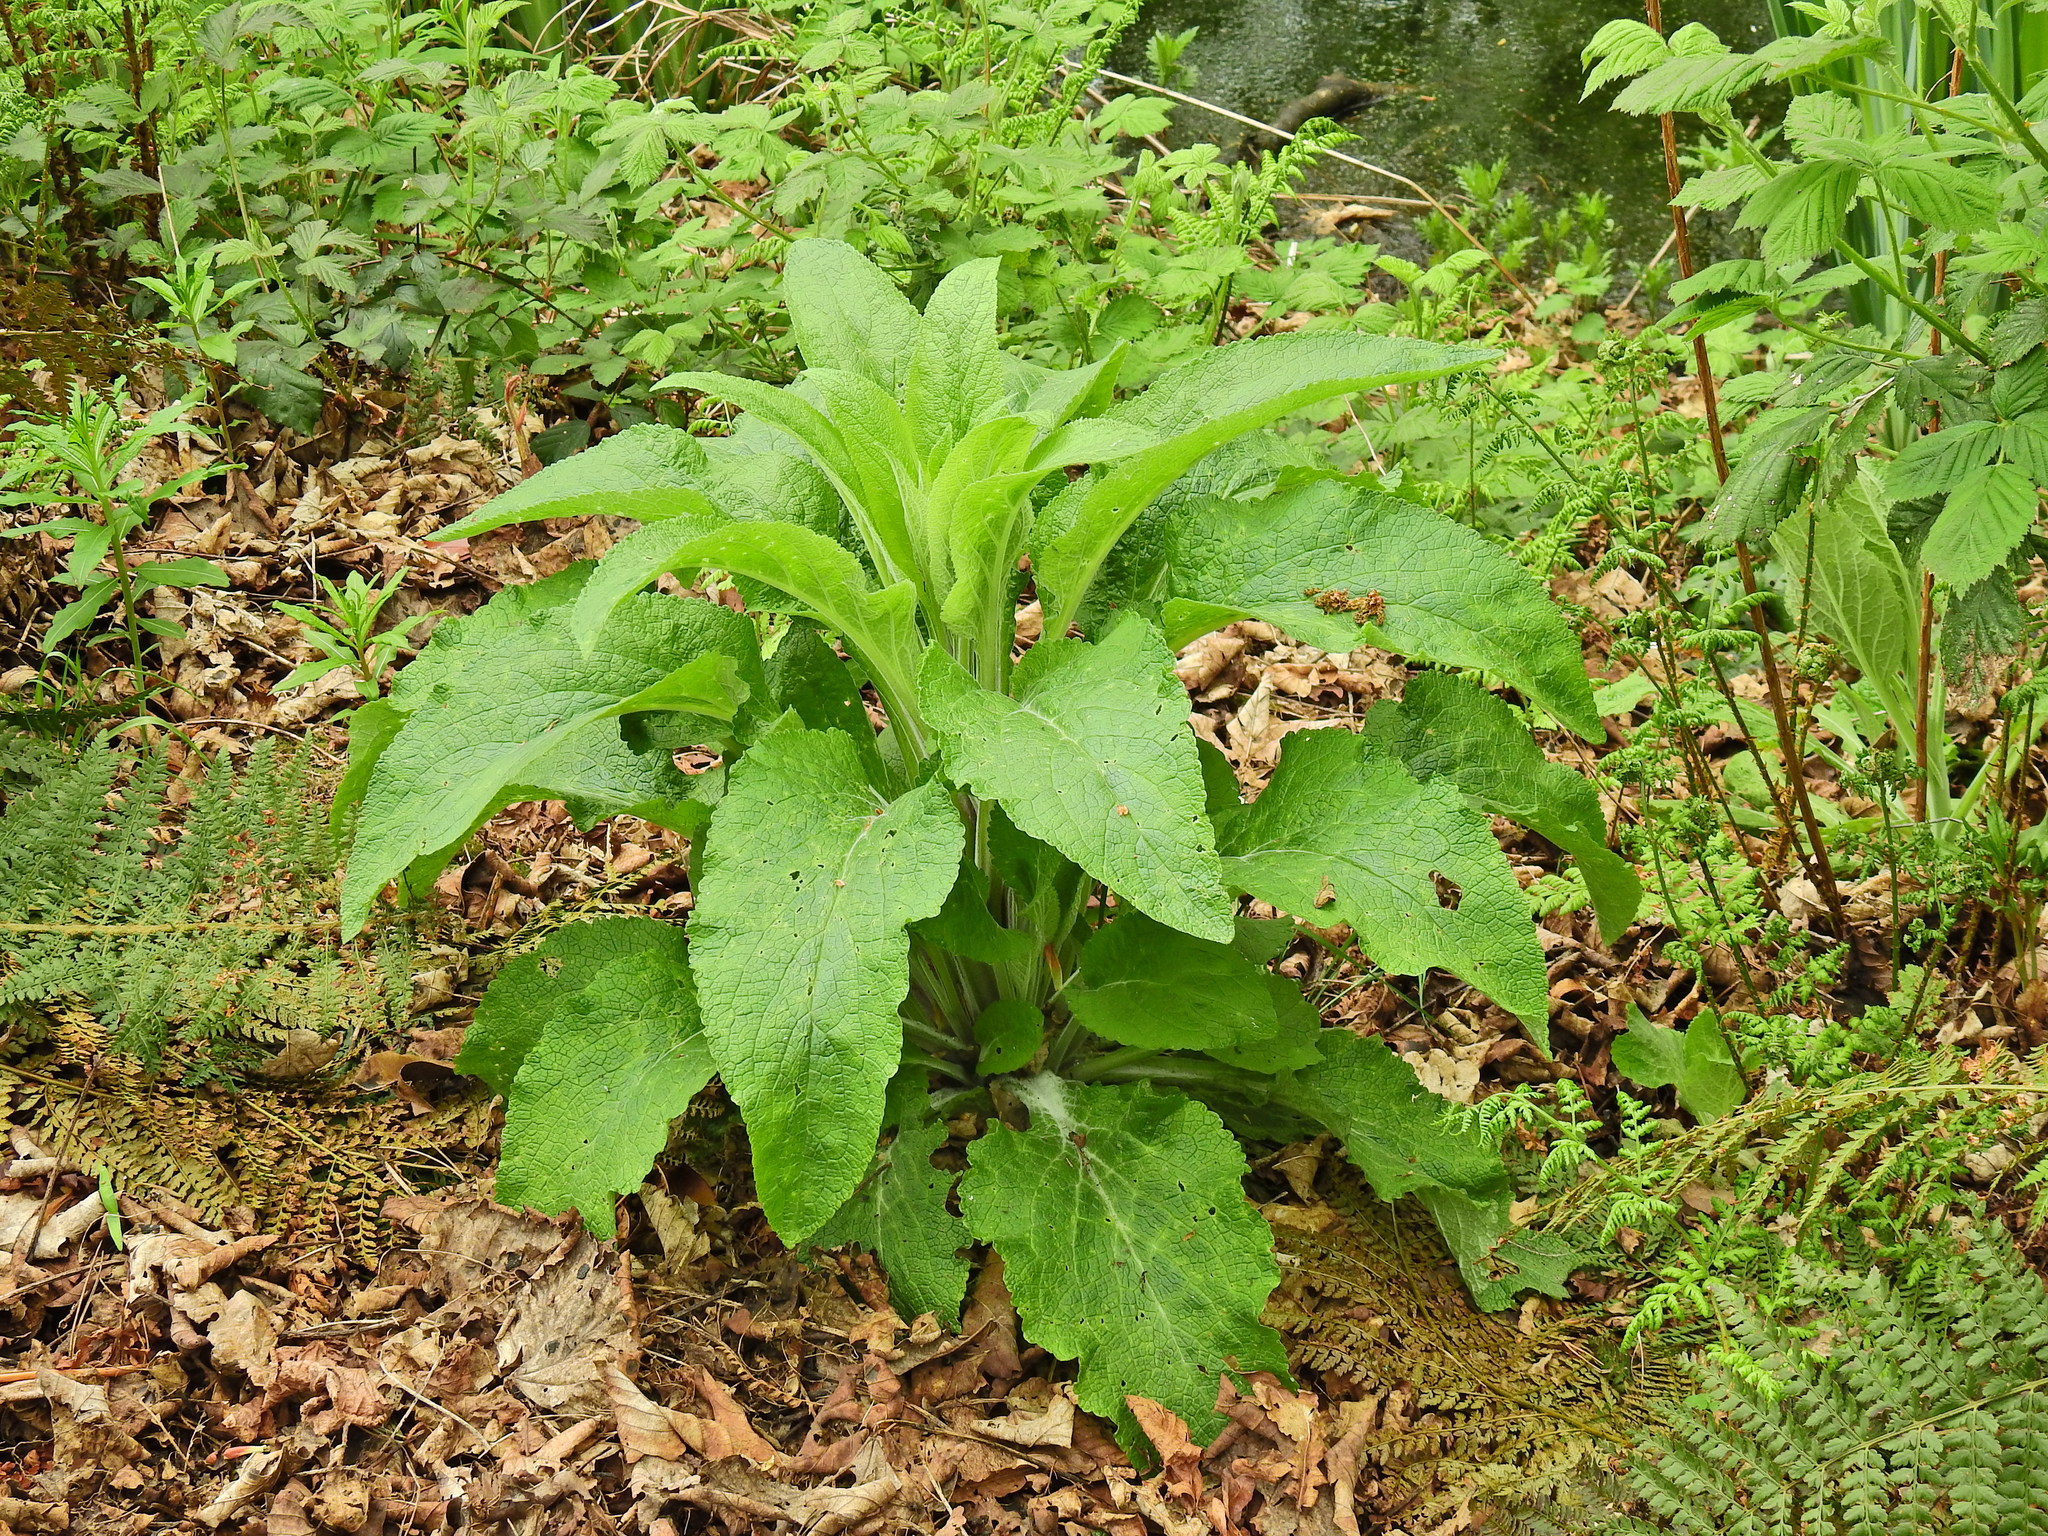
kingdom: Plantae
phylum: Tracheophyta
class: Magnoliopsida
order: Lamiales
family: Plantaginaceae
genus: Digitalis
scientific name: Digitalis purpurea
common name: Foxglove
